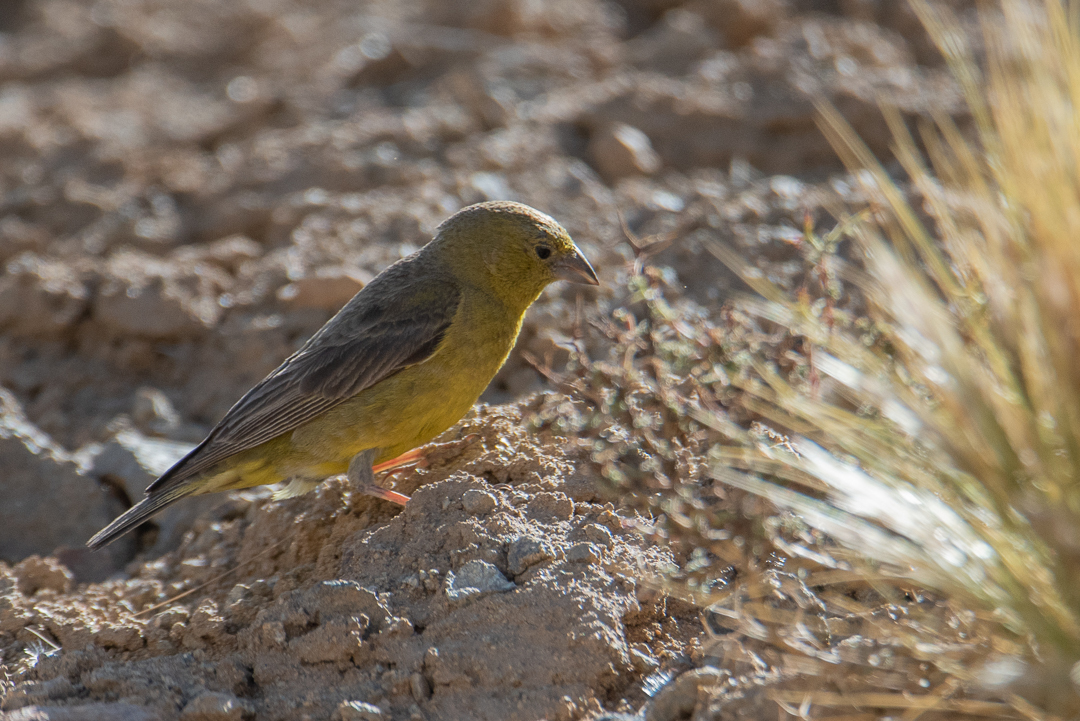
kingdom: Animalia
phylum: Chordata
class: Aves
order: Passeriformes
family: Thraupidae
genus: Sicalis
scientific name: Sicalis olivascens
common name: Greenish yellow finch
